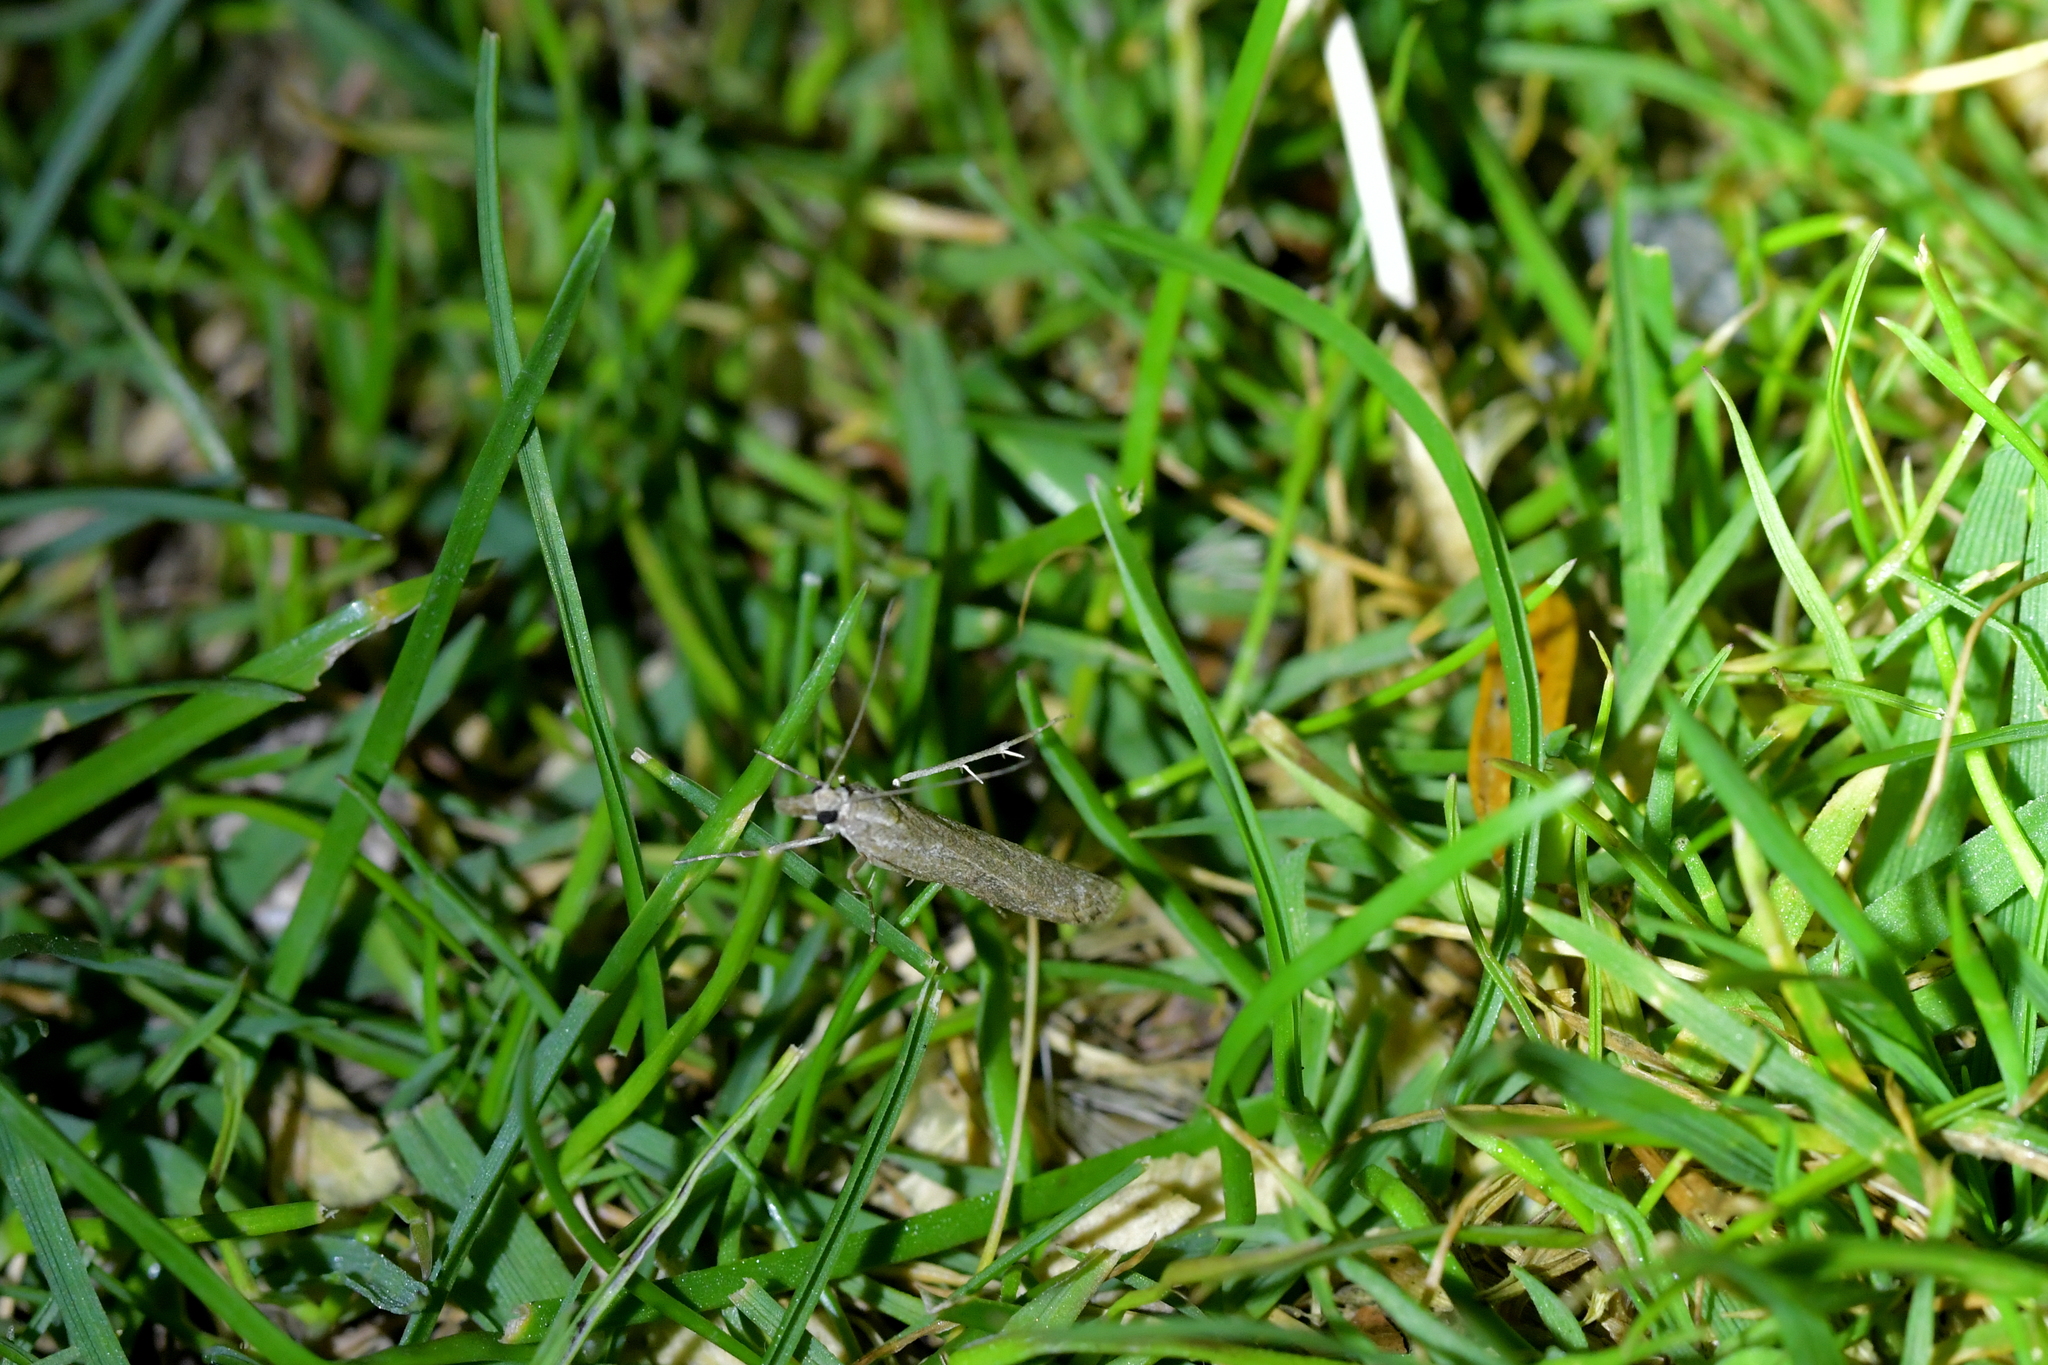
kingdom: Animalia
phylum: Arthropoda
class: Insecta
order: Lepidoptera
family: Crambidae
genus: Eudonia
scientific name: Eudonia leptalea
